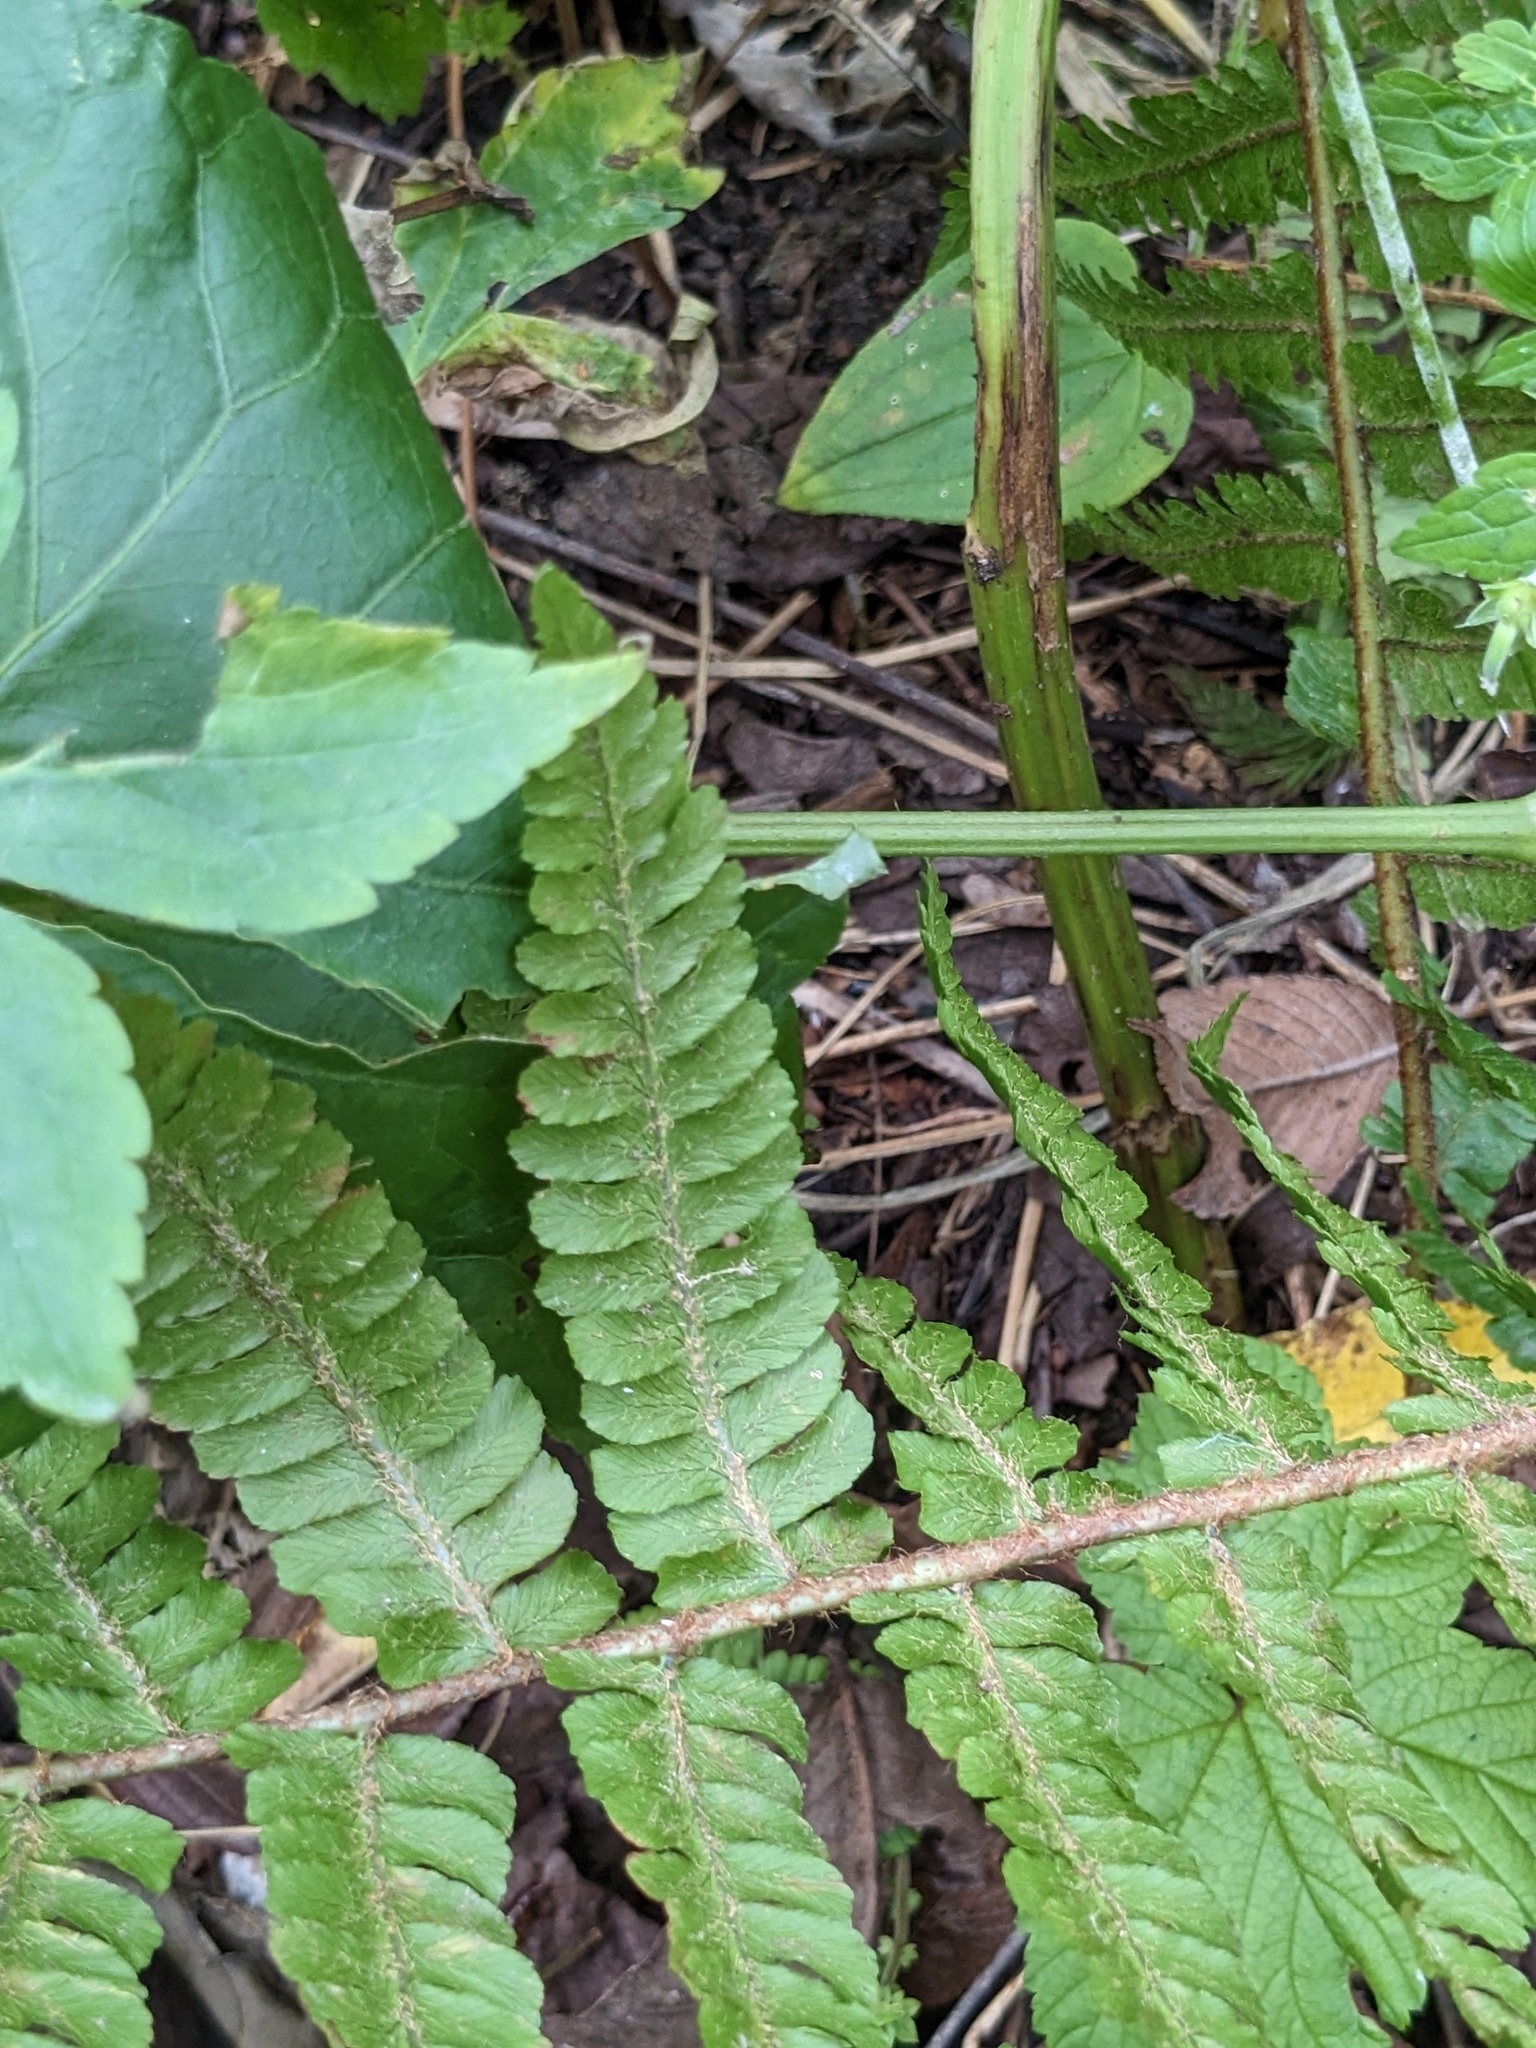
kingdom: Plantae
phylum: Tracheophyta
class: Polypodiopsida
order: Polypodiales
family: Dryopteridaceae
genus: Dryopteris
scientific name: Dryopteris crassirhizoma
